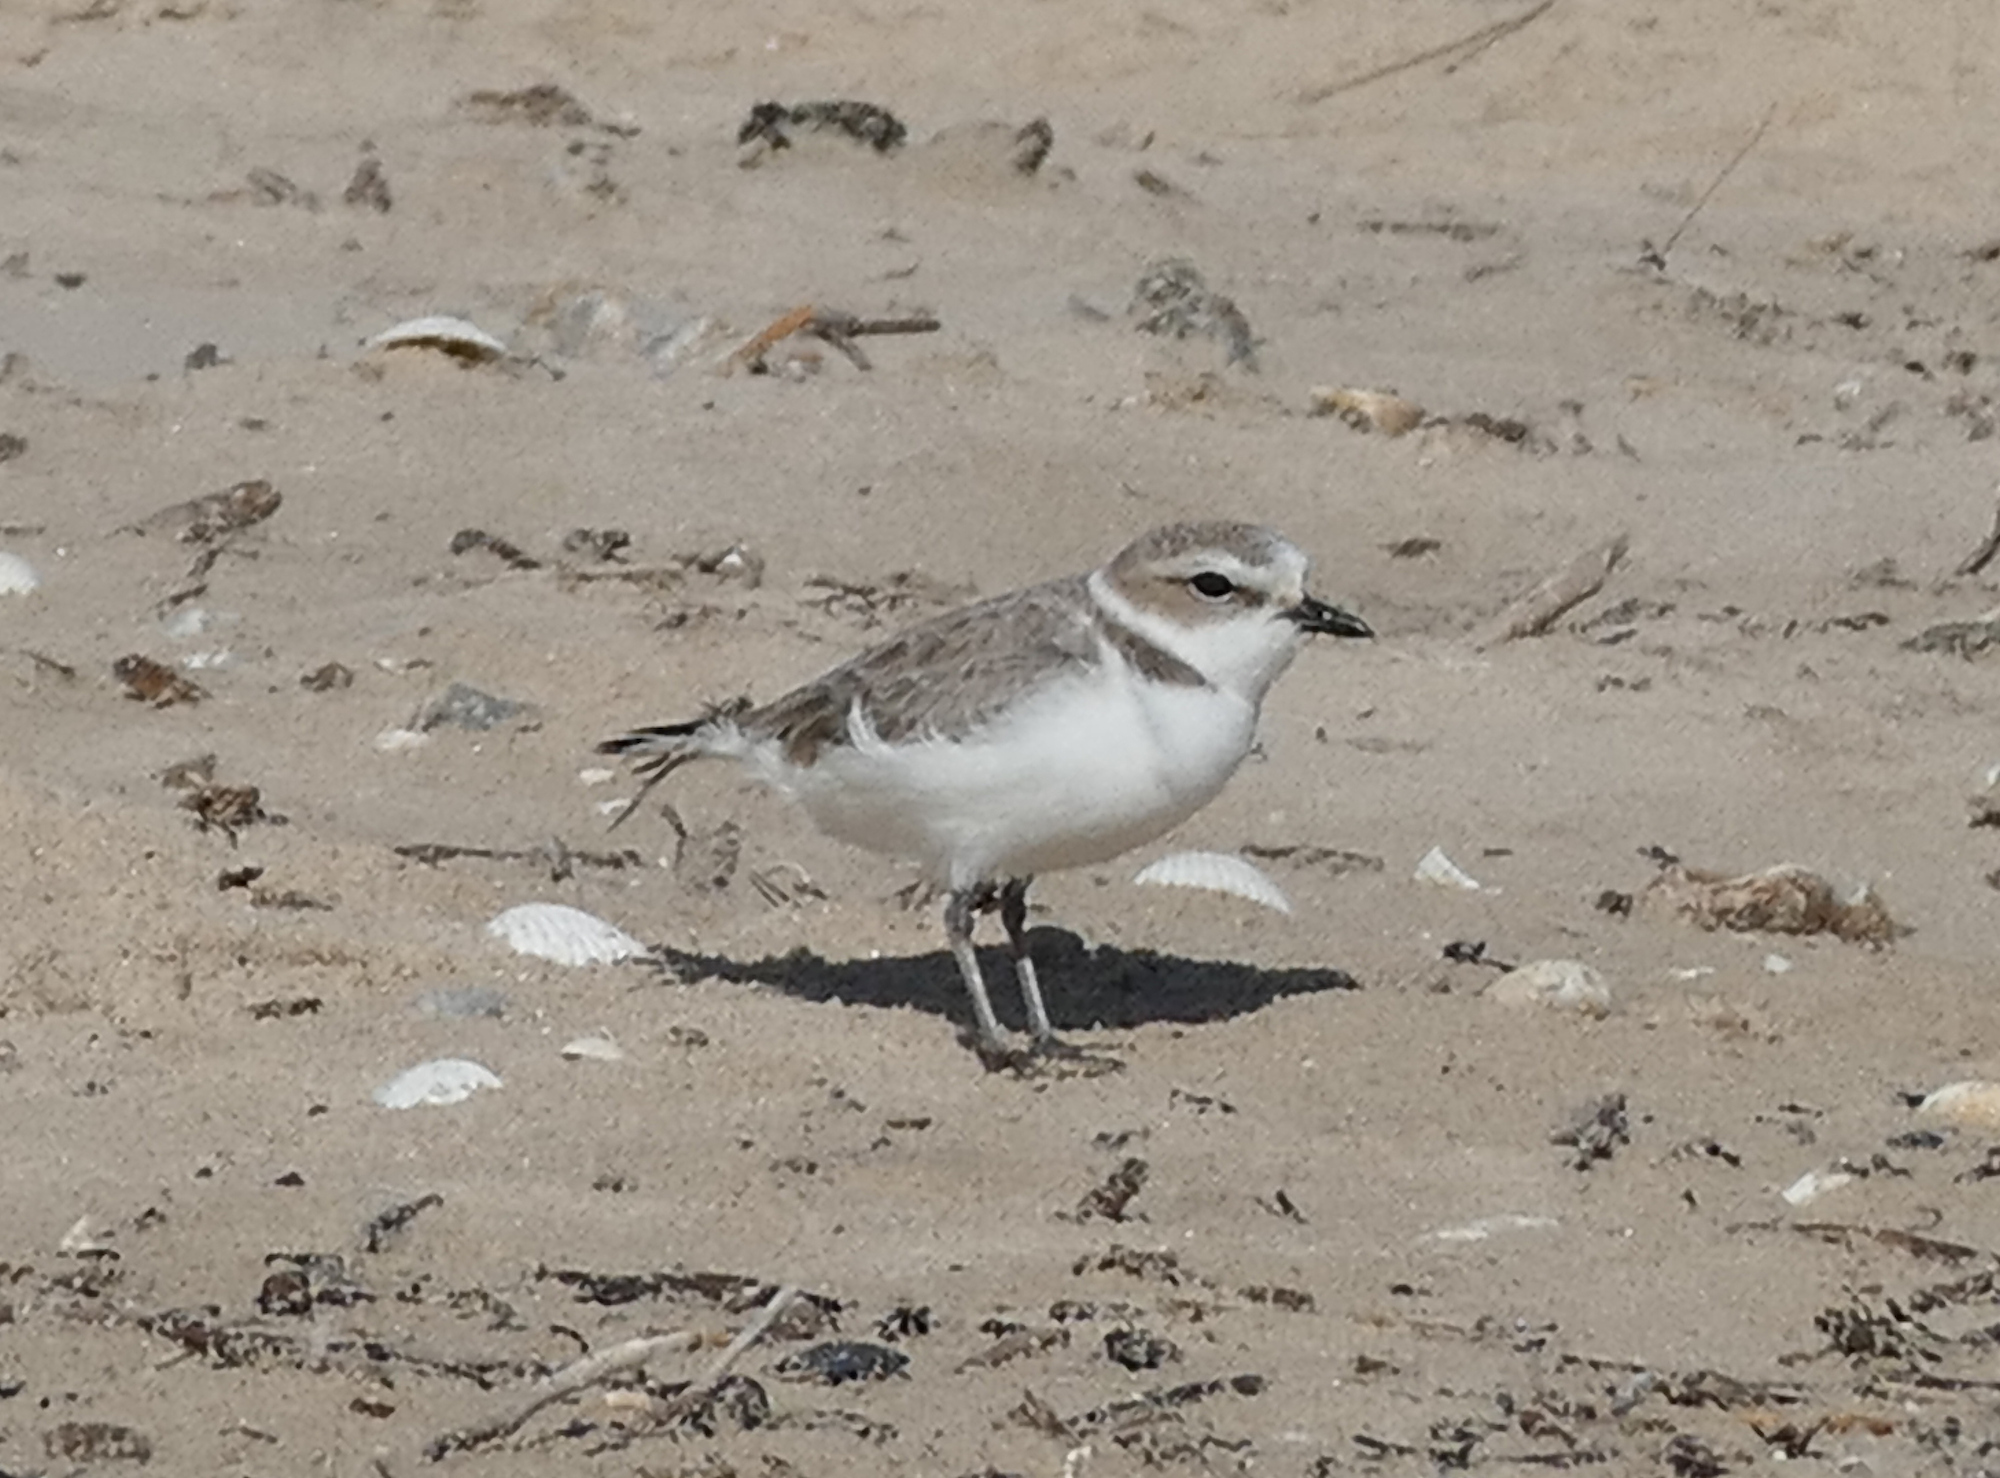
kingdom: Animalia
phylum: Chordata
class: Aves
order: Charadriiformes
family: Charadriidae
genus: Anarhynchus
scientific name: Anarhynchus
